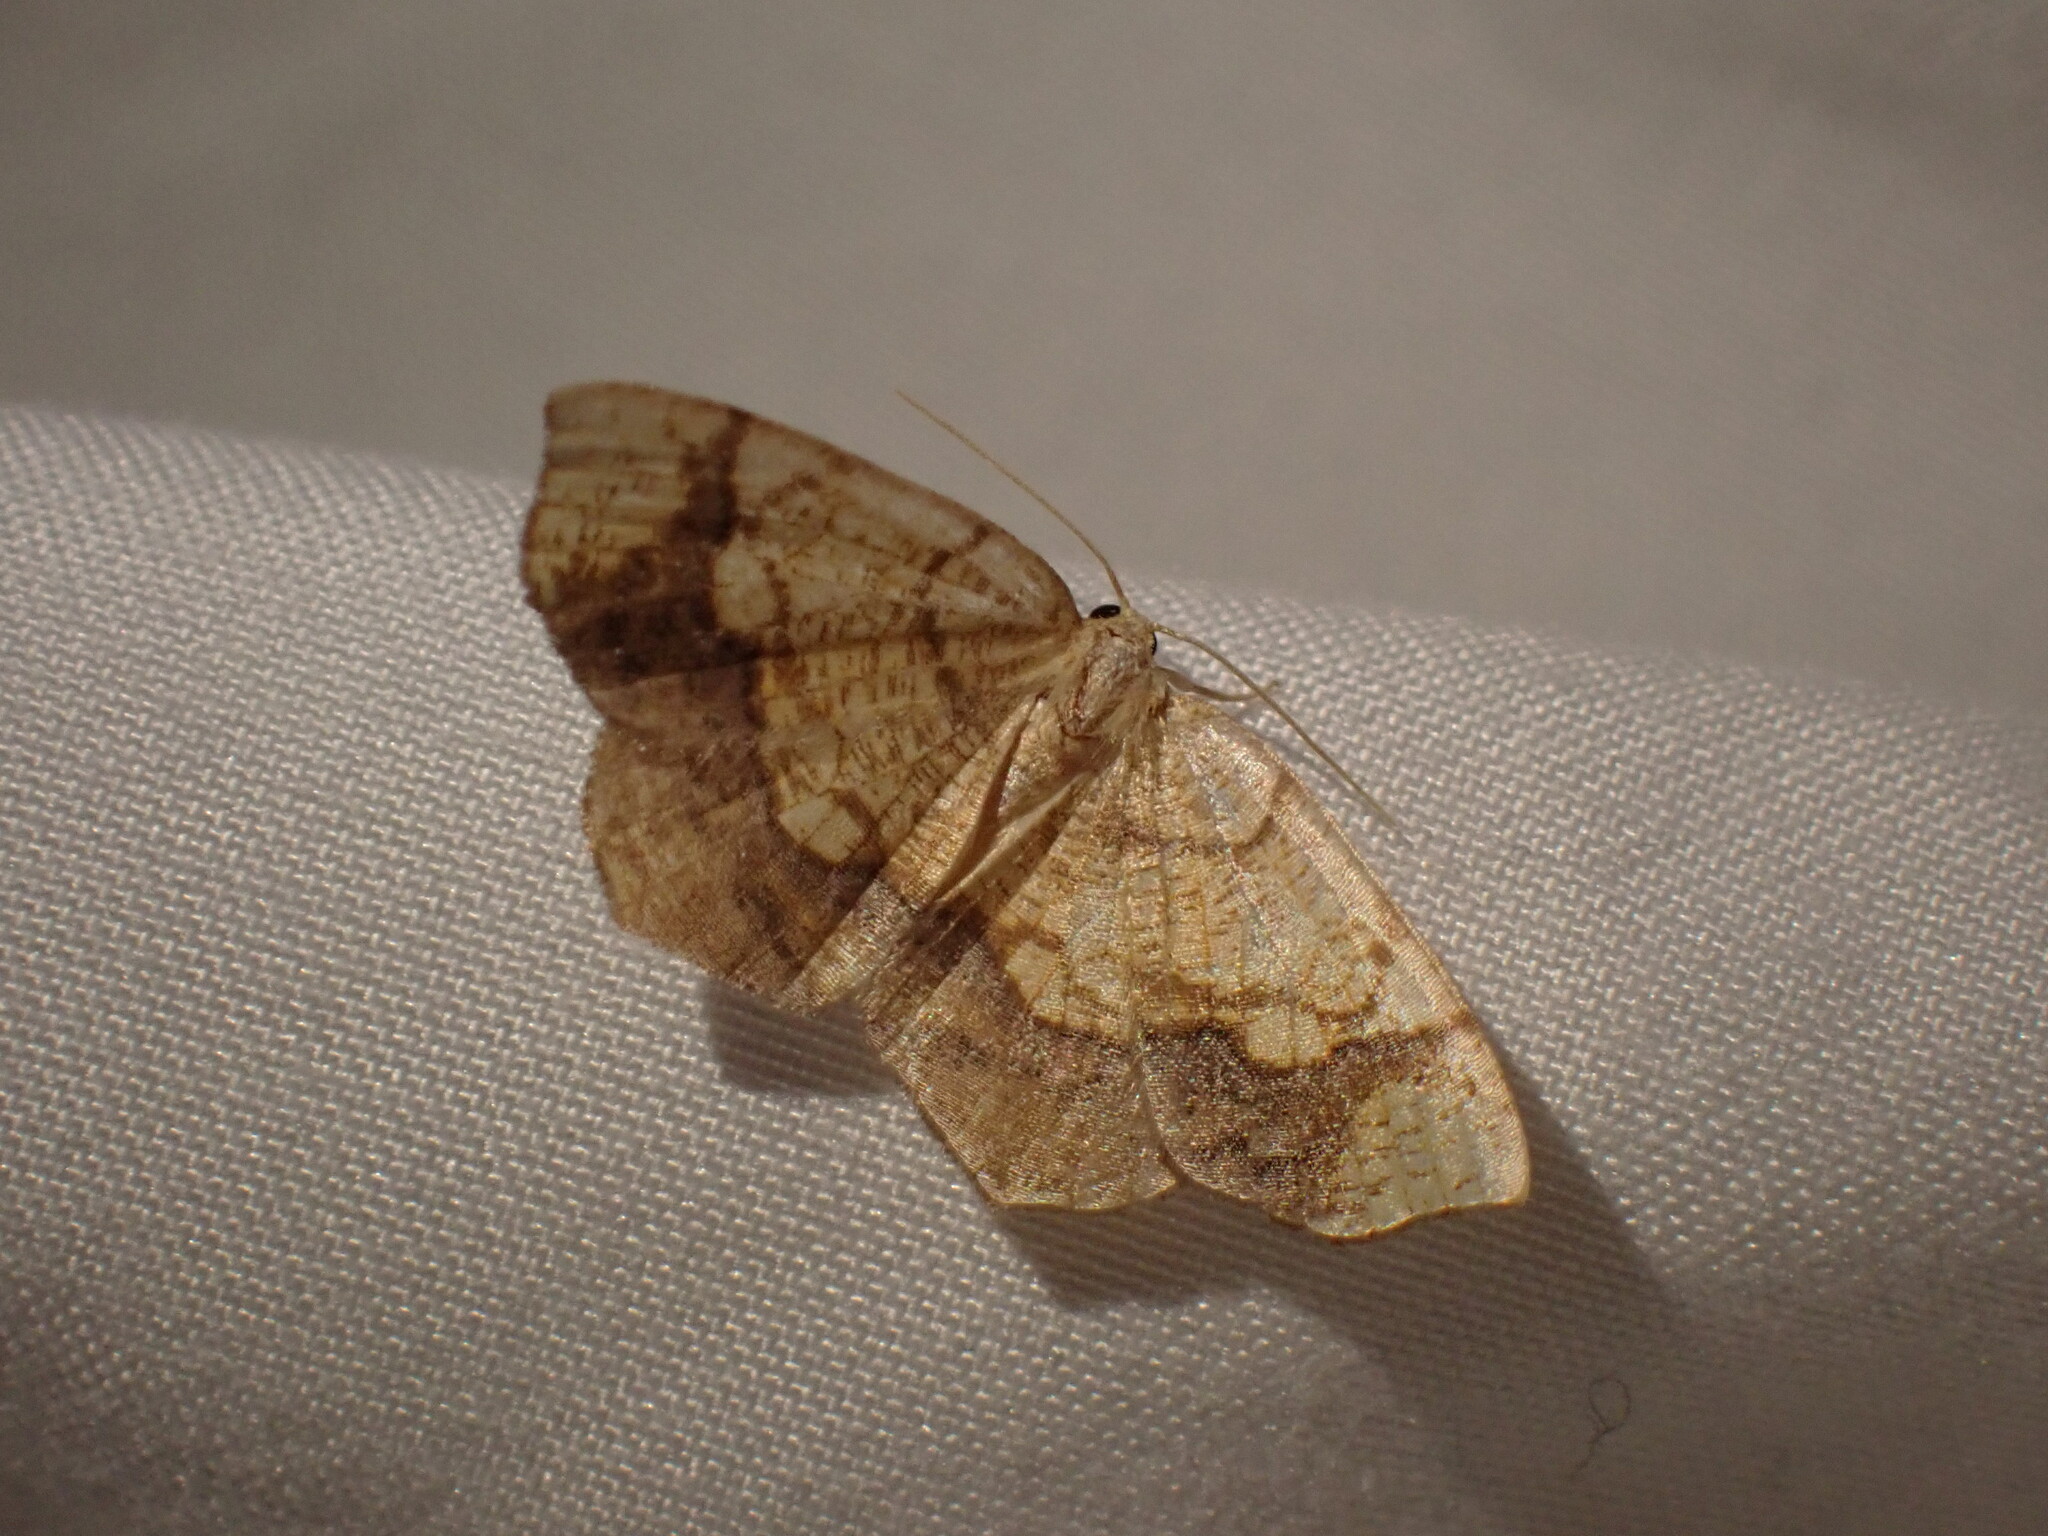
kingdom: Animalia
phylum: Arthropoda
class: Insecta
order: Lepidoptera
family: Geometridae
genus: Nematocampa
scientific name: Nematocampa resistaria
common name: Horned spanworm moth
